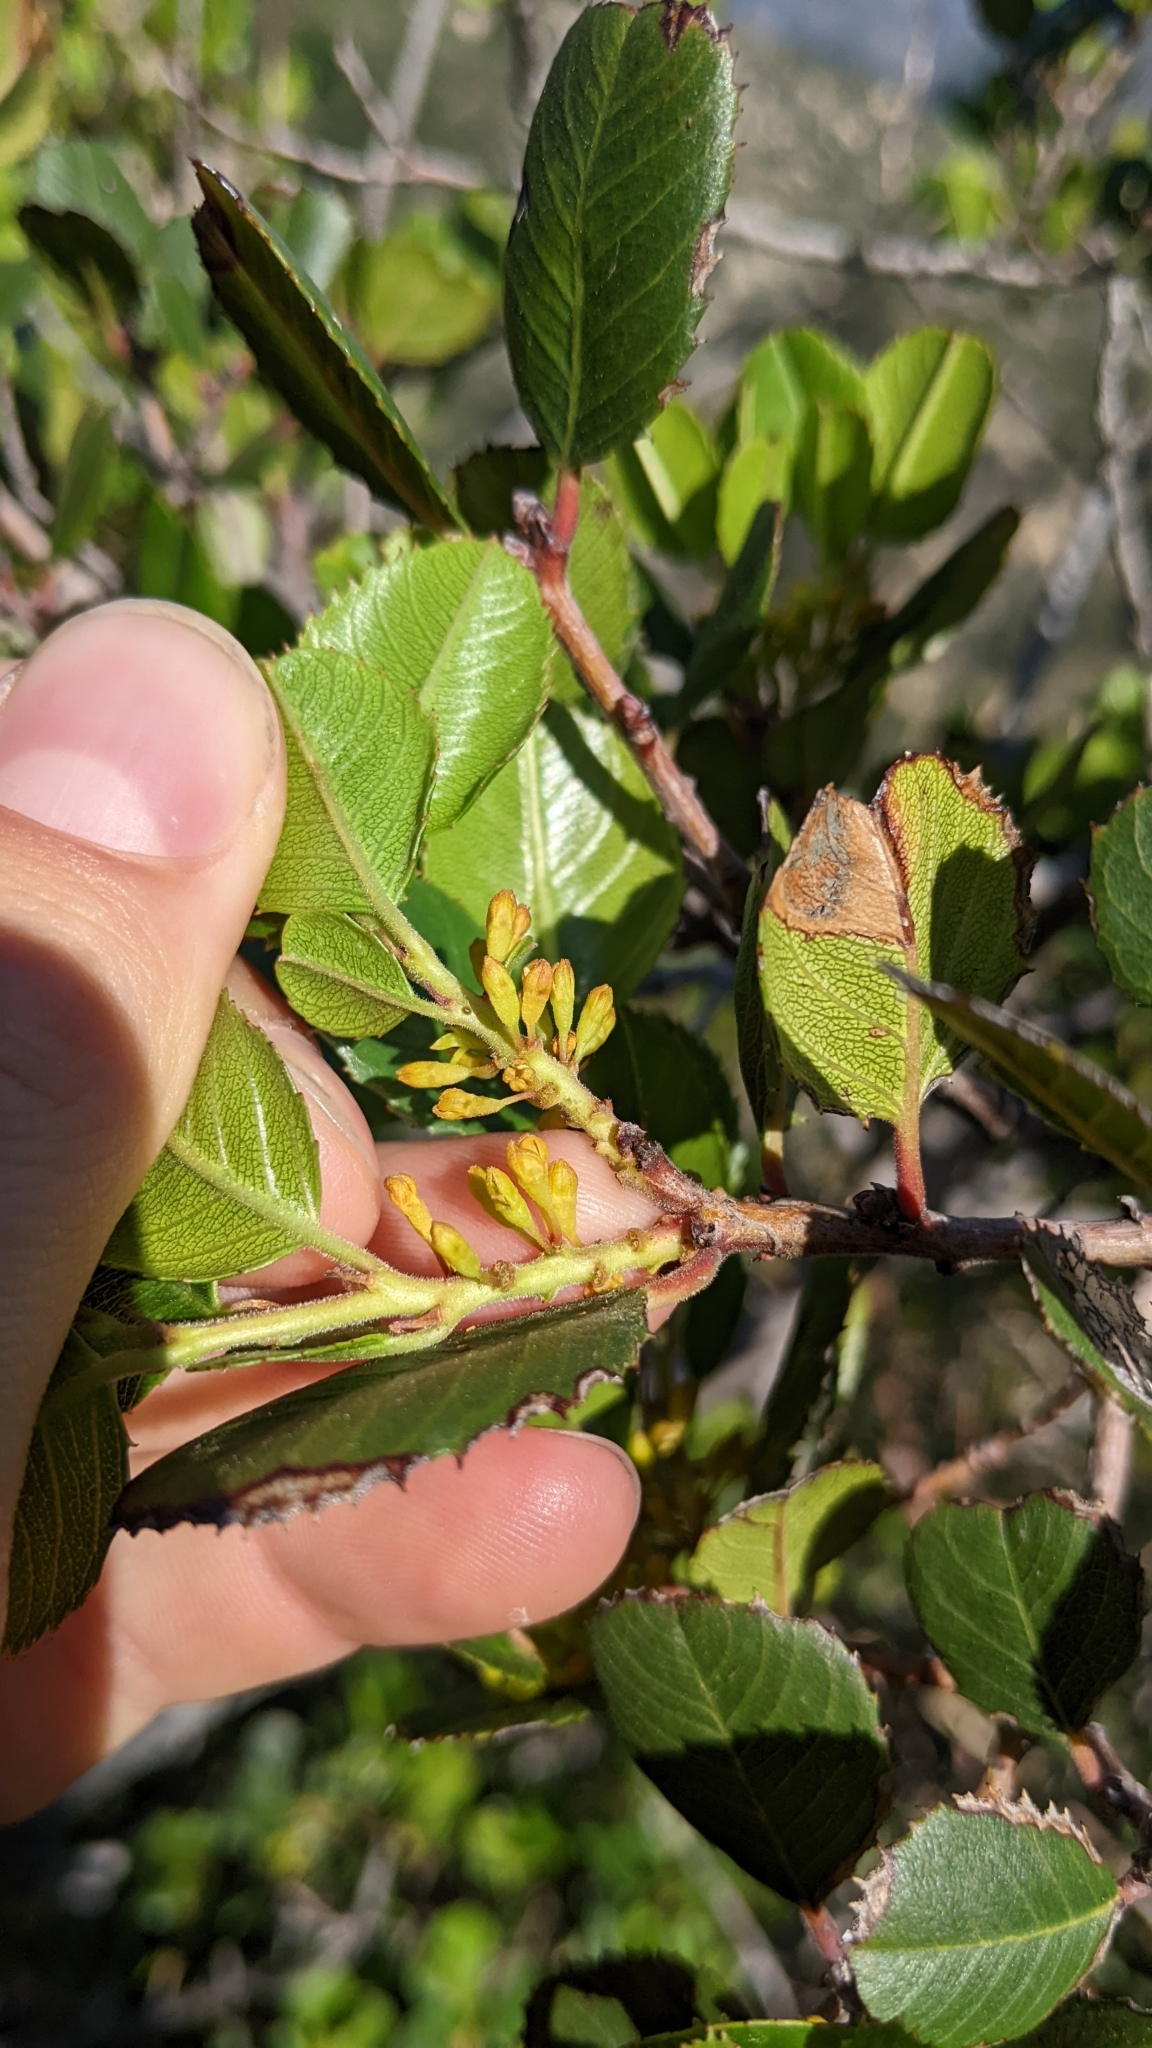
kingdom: Plantae
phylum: Tracheophyta
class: Magnoliopsida
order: Rosales
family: Rhamnaceae
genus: Endotropis
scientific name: Endotropis crocea
